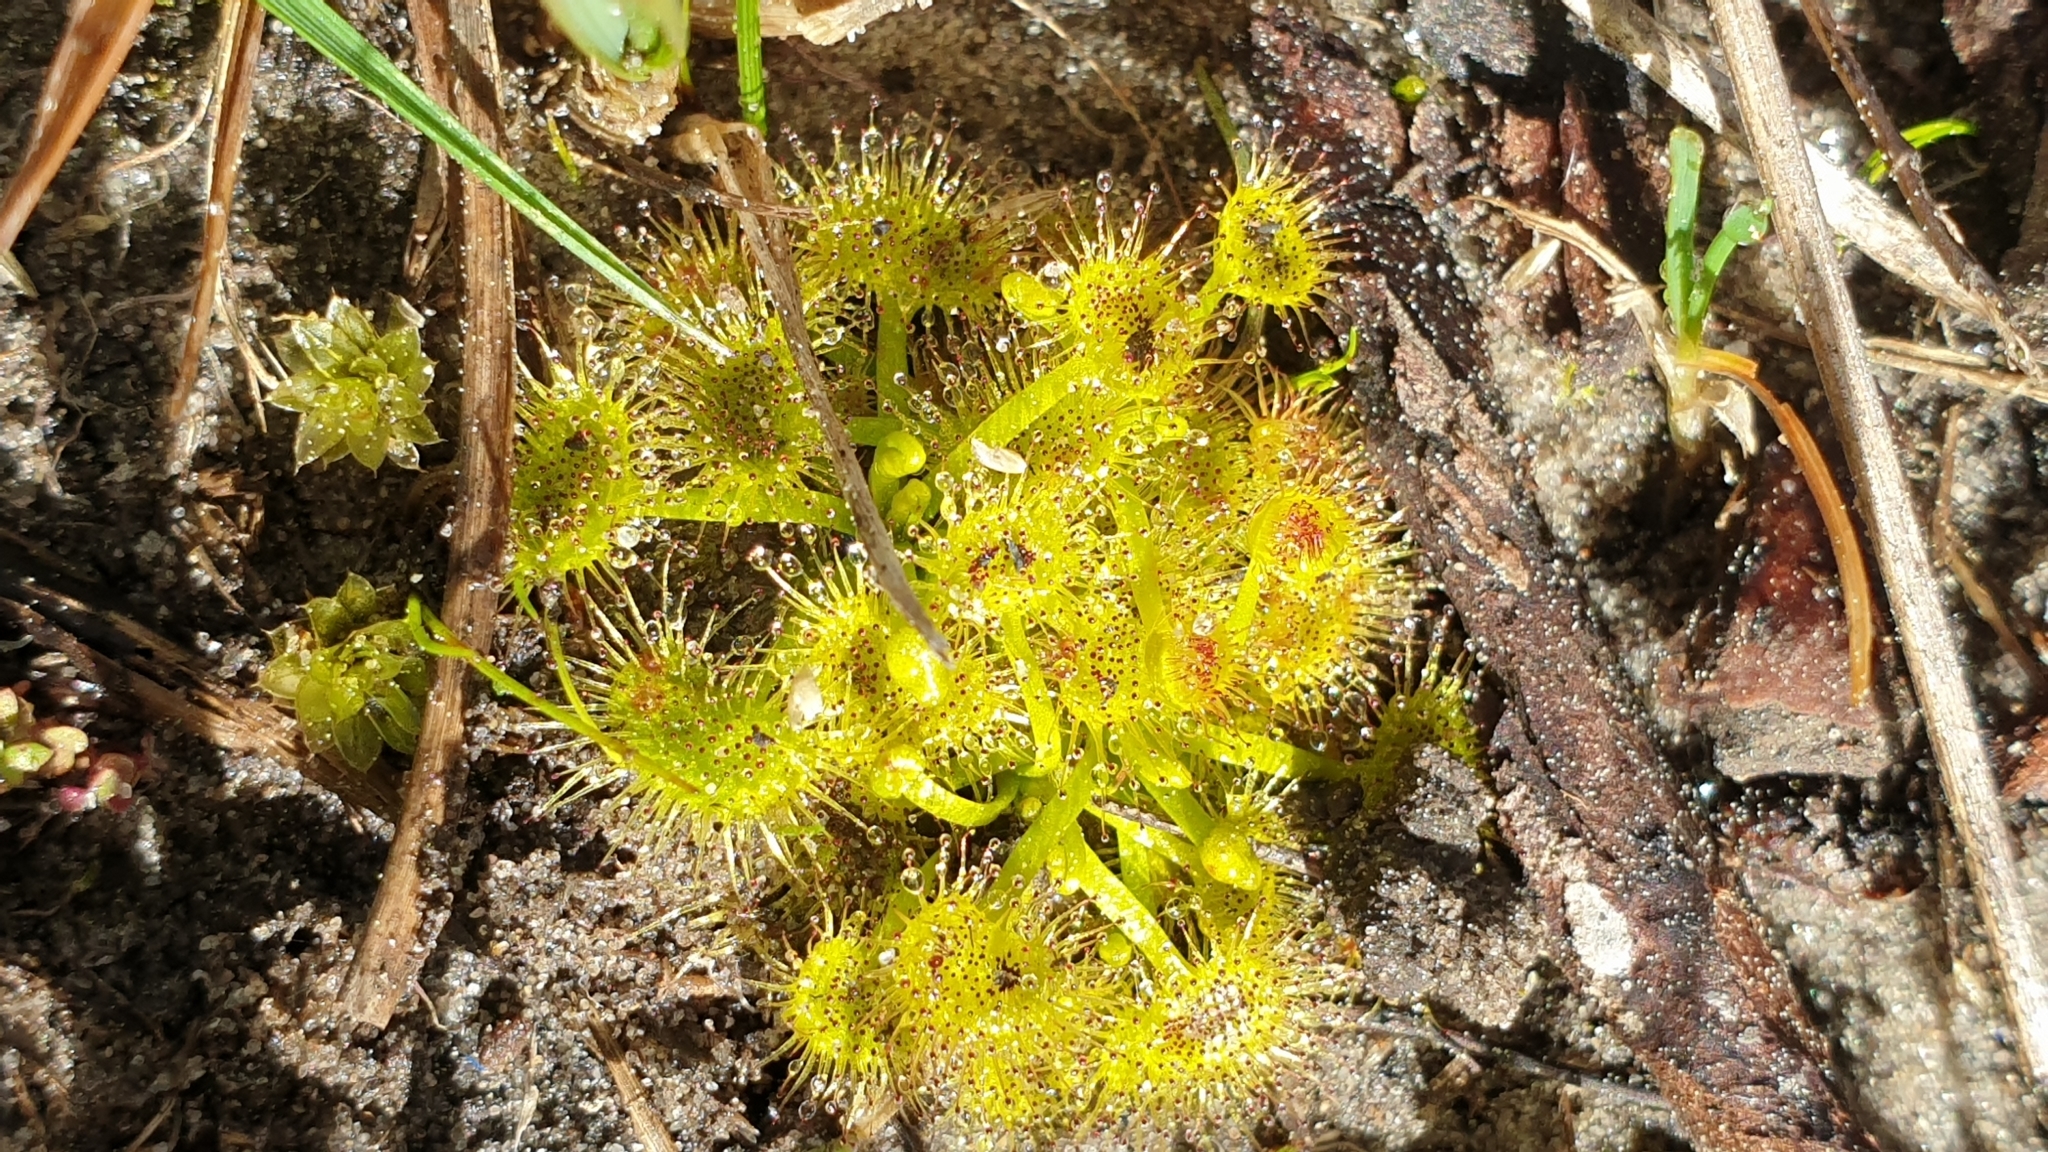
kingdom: Plantae
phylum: Tracheophyta
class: Magnoliopsida
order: Caryophyllales
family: Droseraceae
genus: Drosera
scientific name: Drosera hookeri
